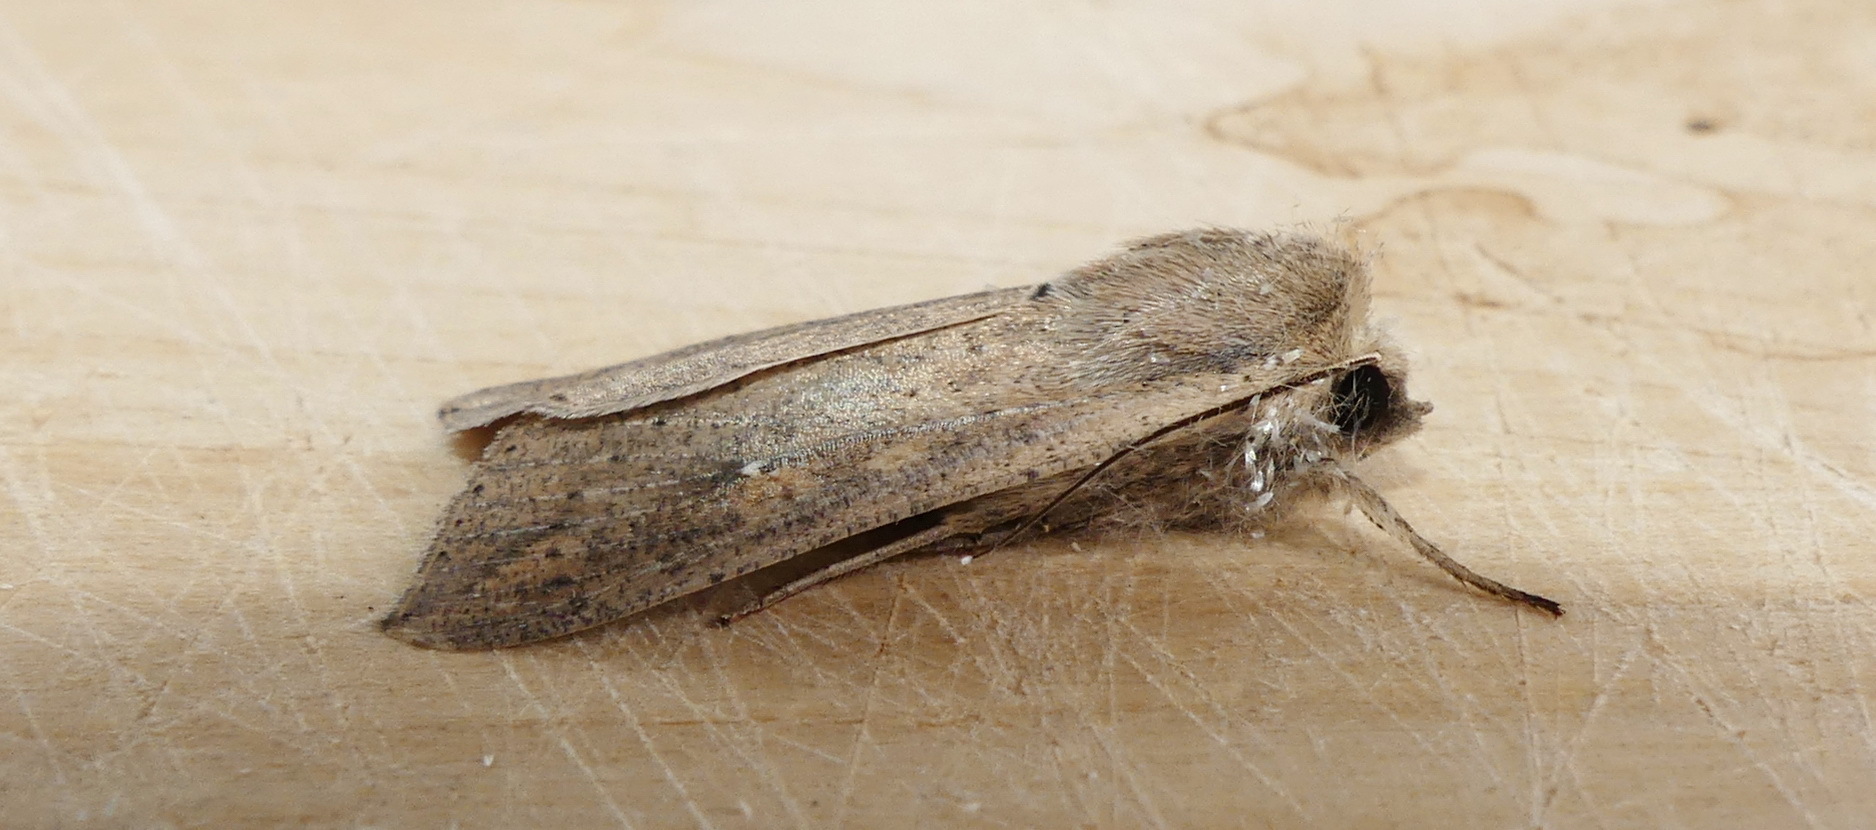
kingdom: Animalia
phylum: Arthropoda
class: Insecta
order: Lepidoptera
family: Noctuidae
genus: Mythimna
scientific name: Mythimna unipuncta
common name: White-speck
